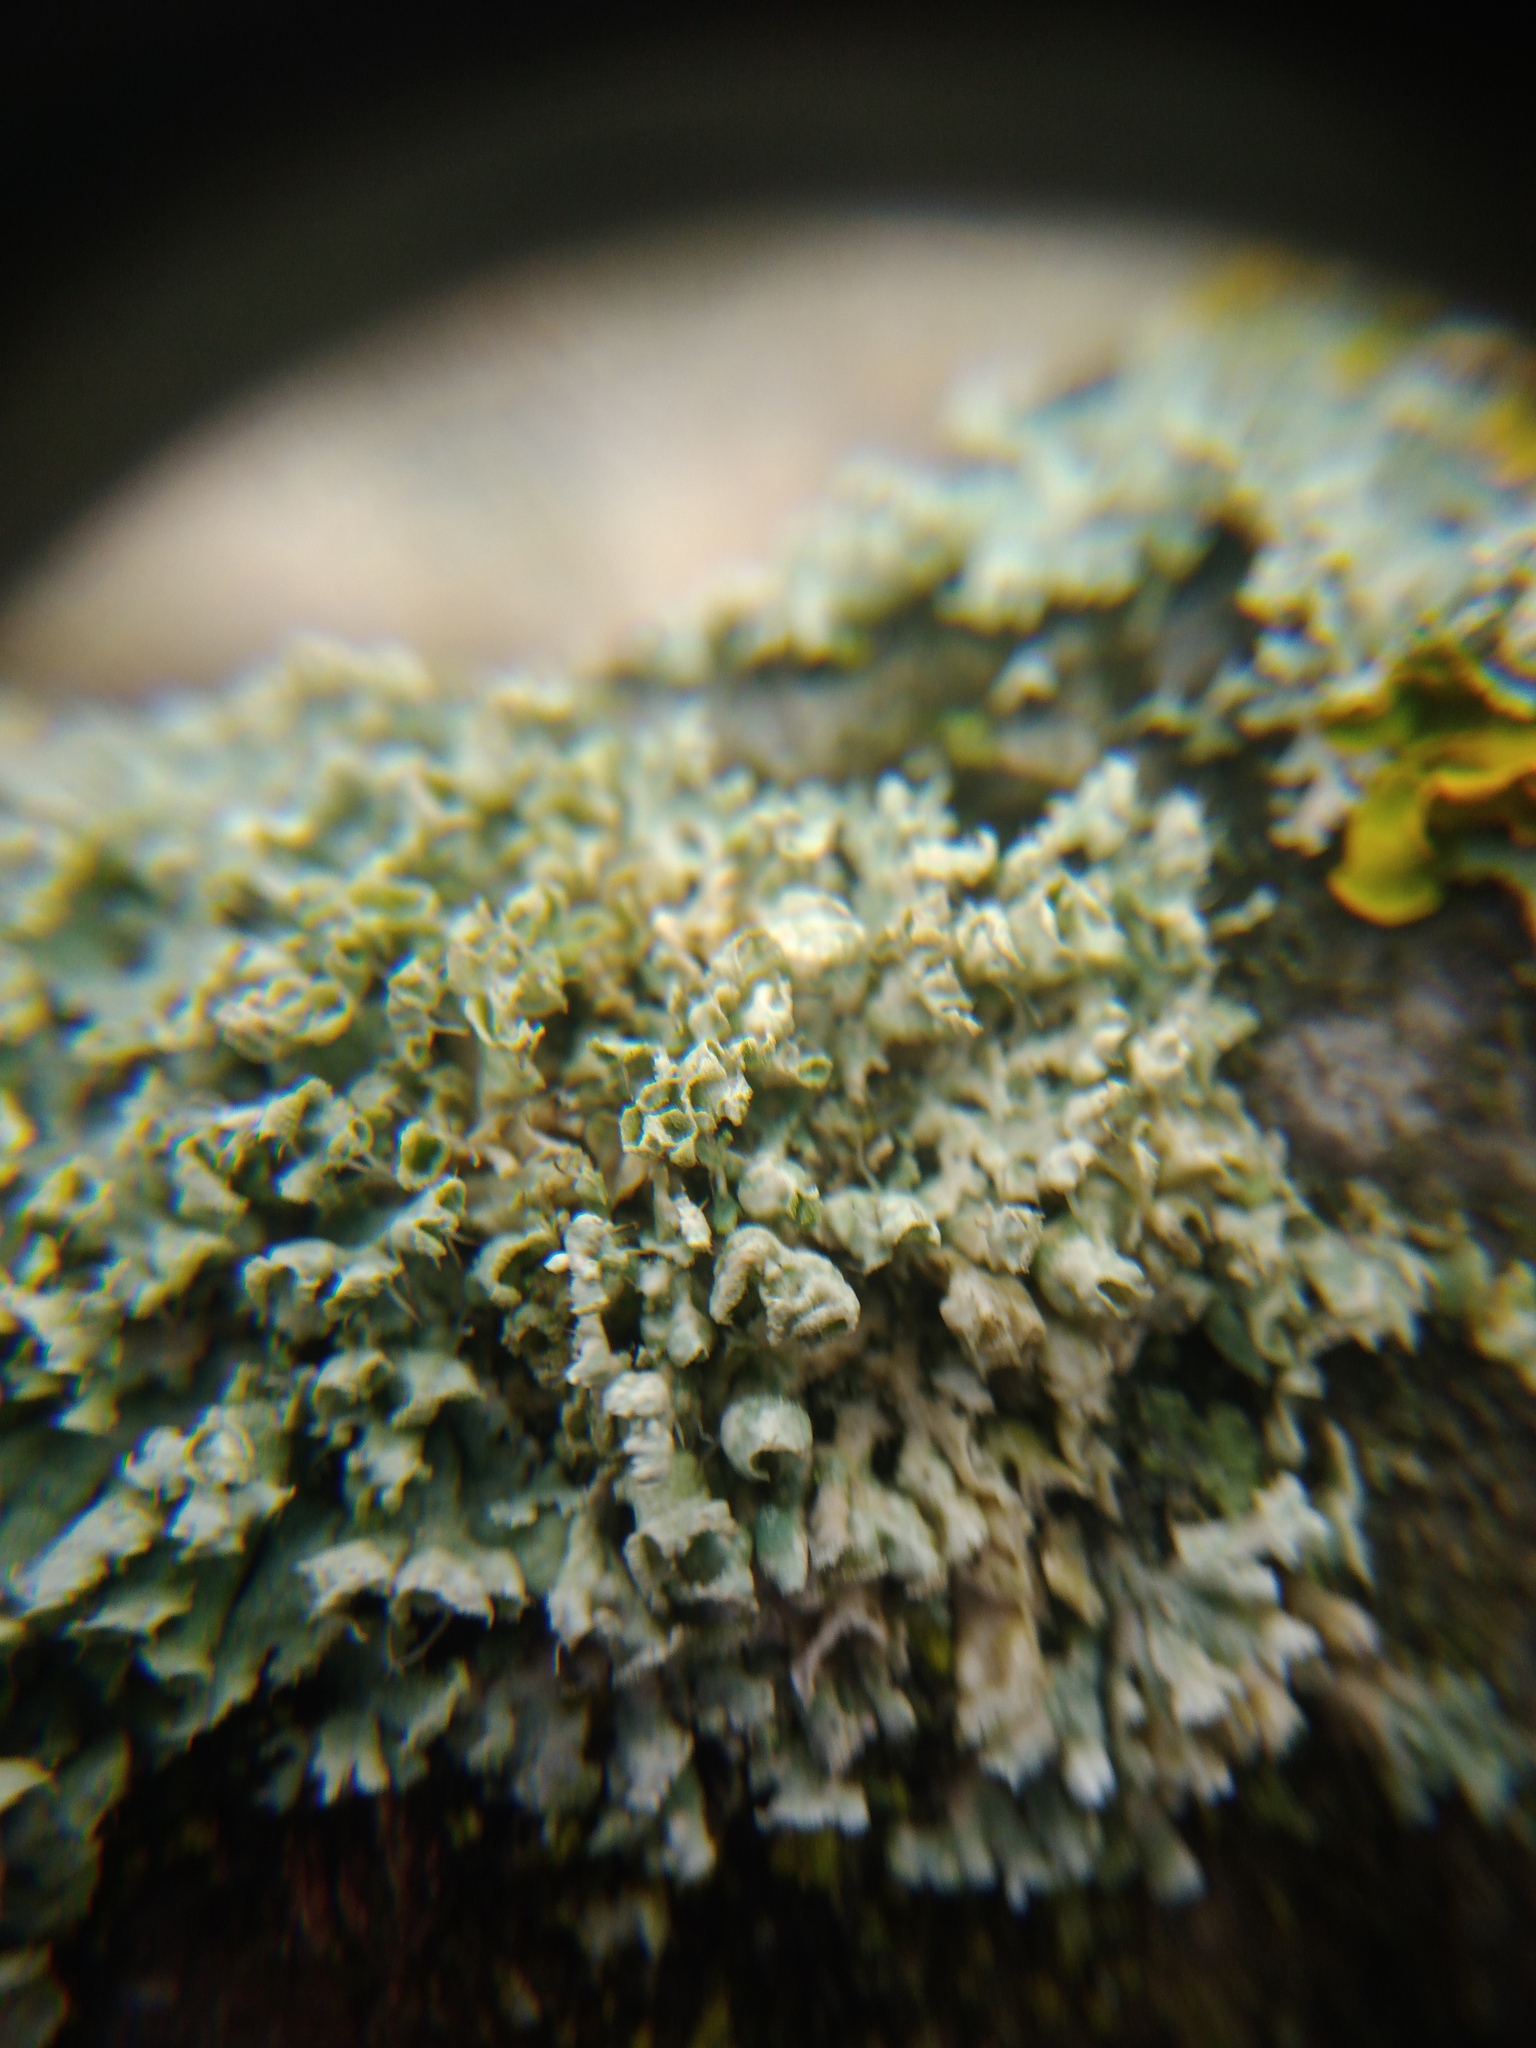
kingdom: Fungi
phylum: Ascomycota
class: Lecanoromycetes
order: Caliciales
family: Physciaceae
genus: Physcia
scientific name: Physcia adscendens
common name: Hooded rosette lichen
